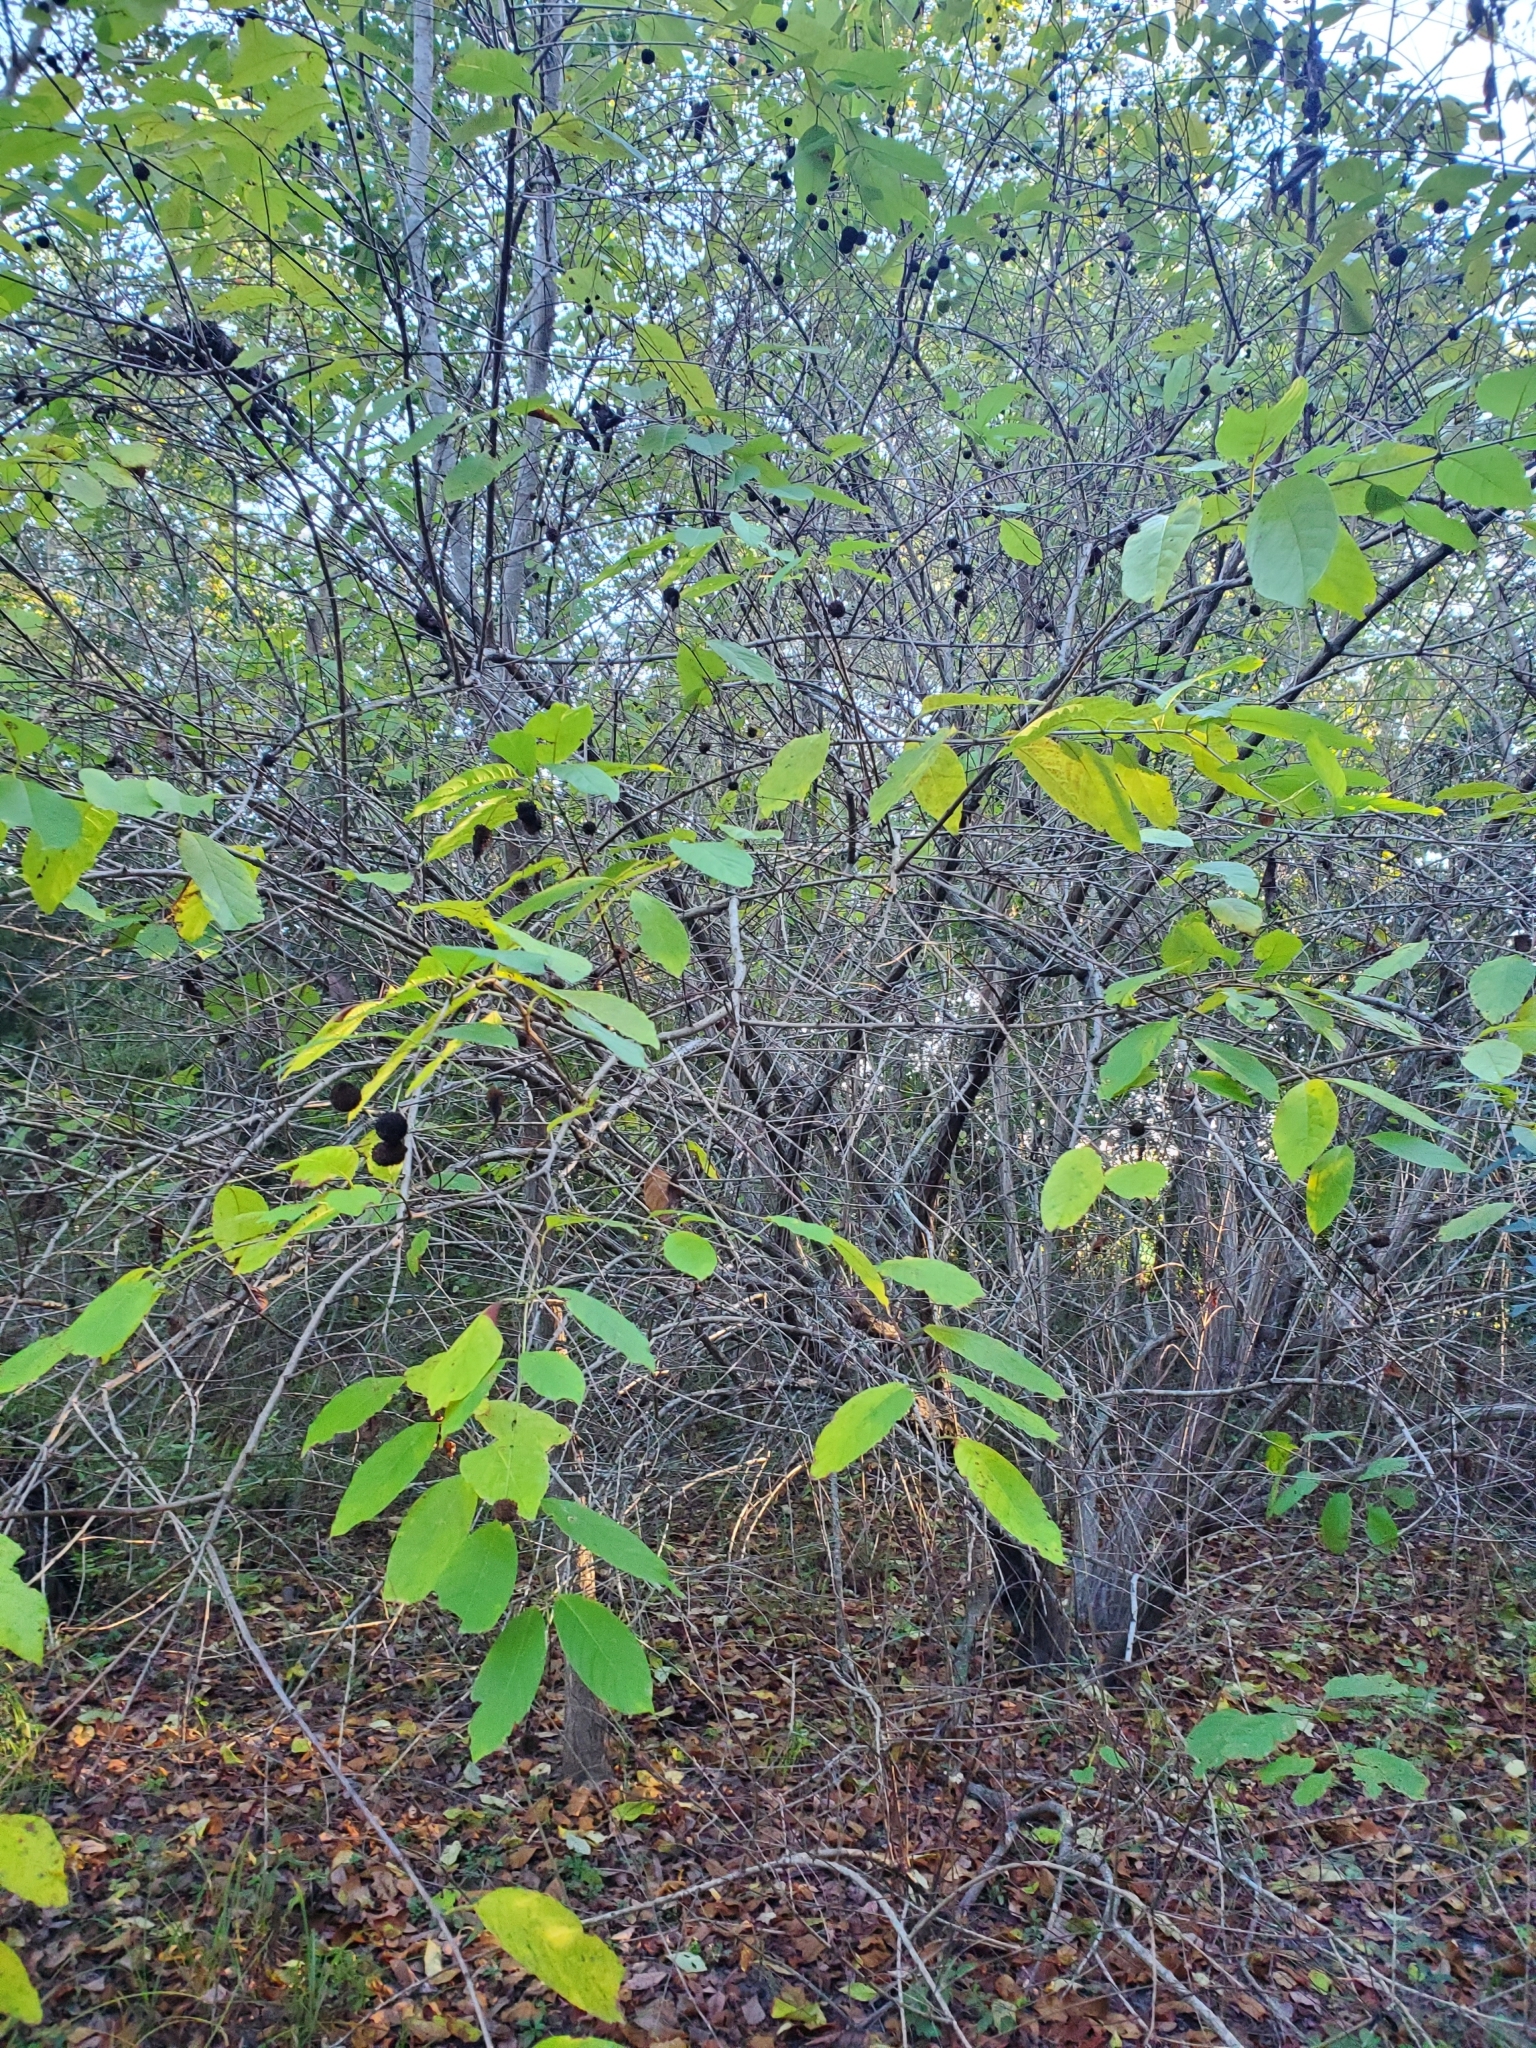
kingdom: Plantae
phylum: Tracheophyta
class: Magnoliopsida
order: Gentianales
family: Rubiaceae
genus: Cephalanthus
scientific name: Cephalanthus occidentalis
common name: Button-willow
